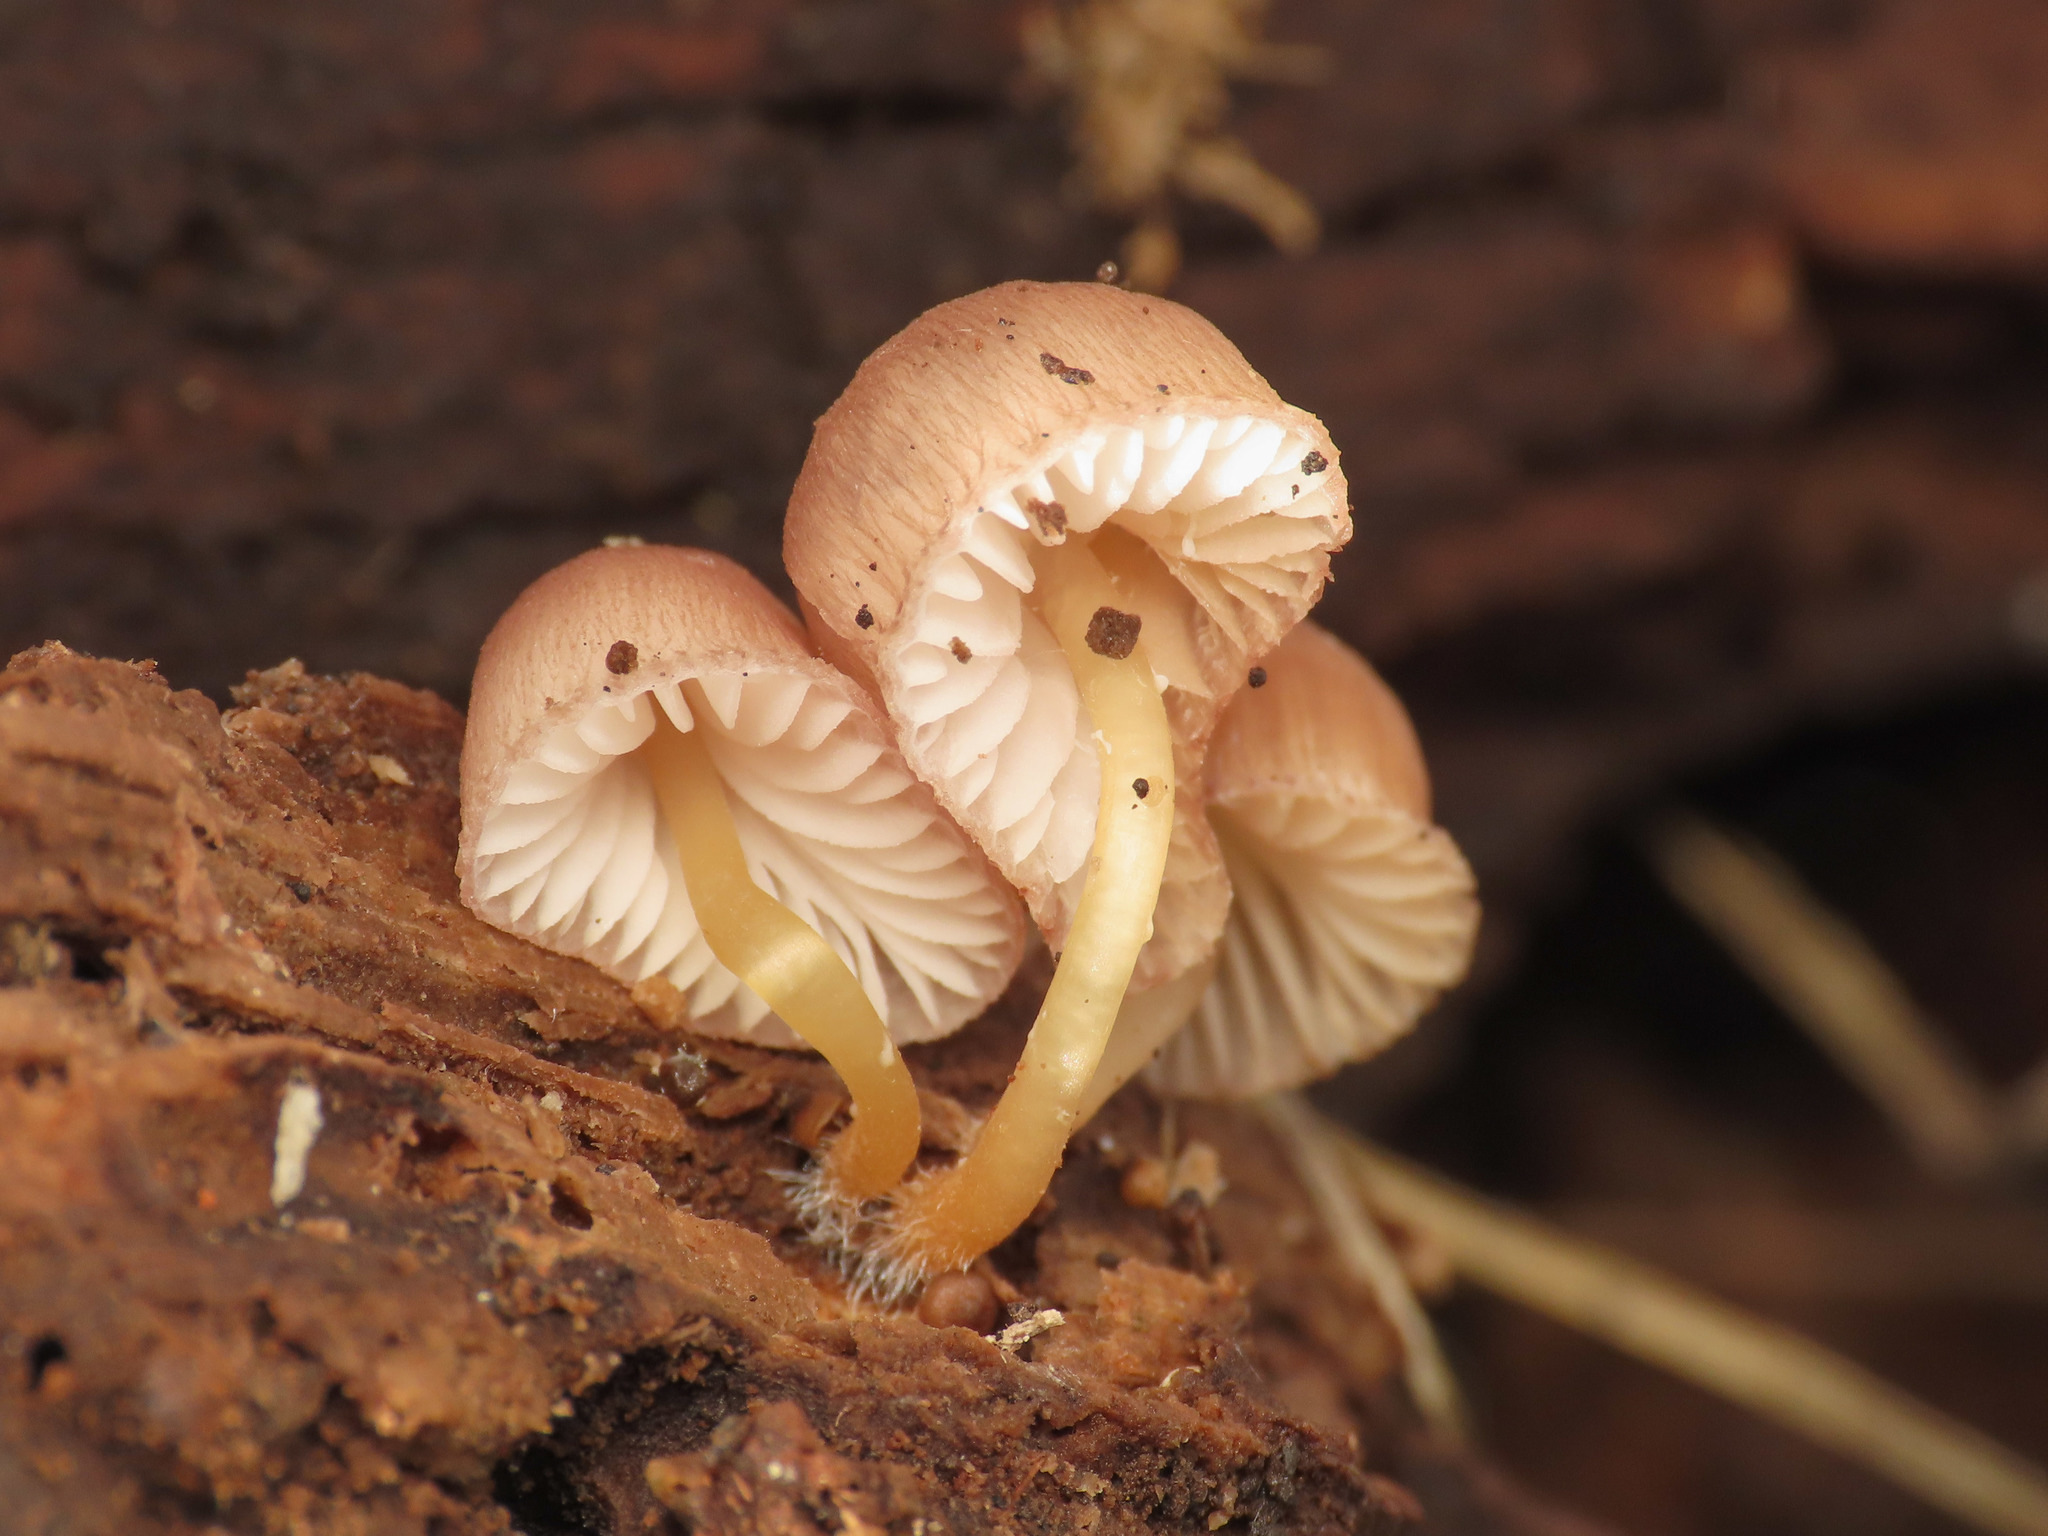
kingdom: Fungi
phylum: Basidiomycota
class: Agaricomycetes
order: Agaricales
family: Mycenaceae
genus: Mycena
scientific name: Mycena renati
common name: Beautiful bonnet
